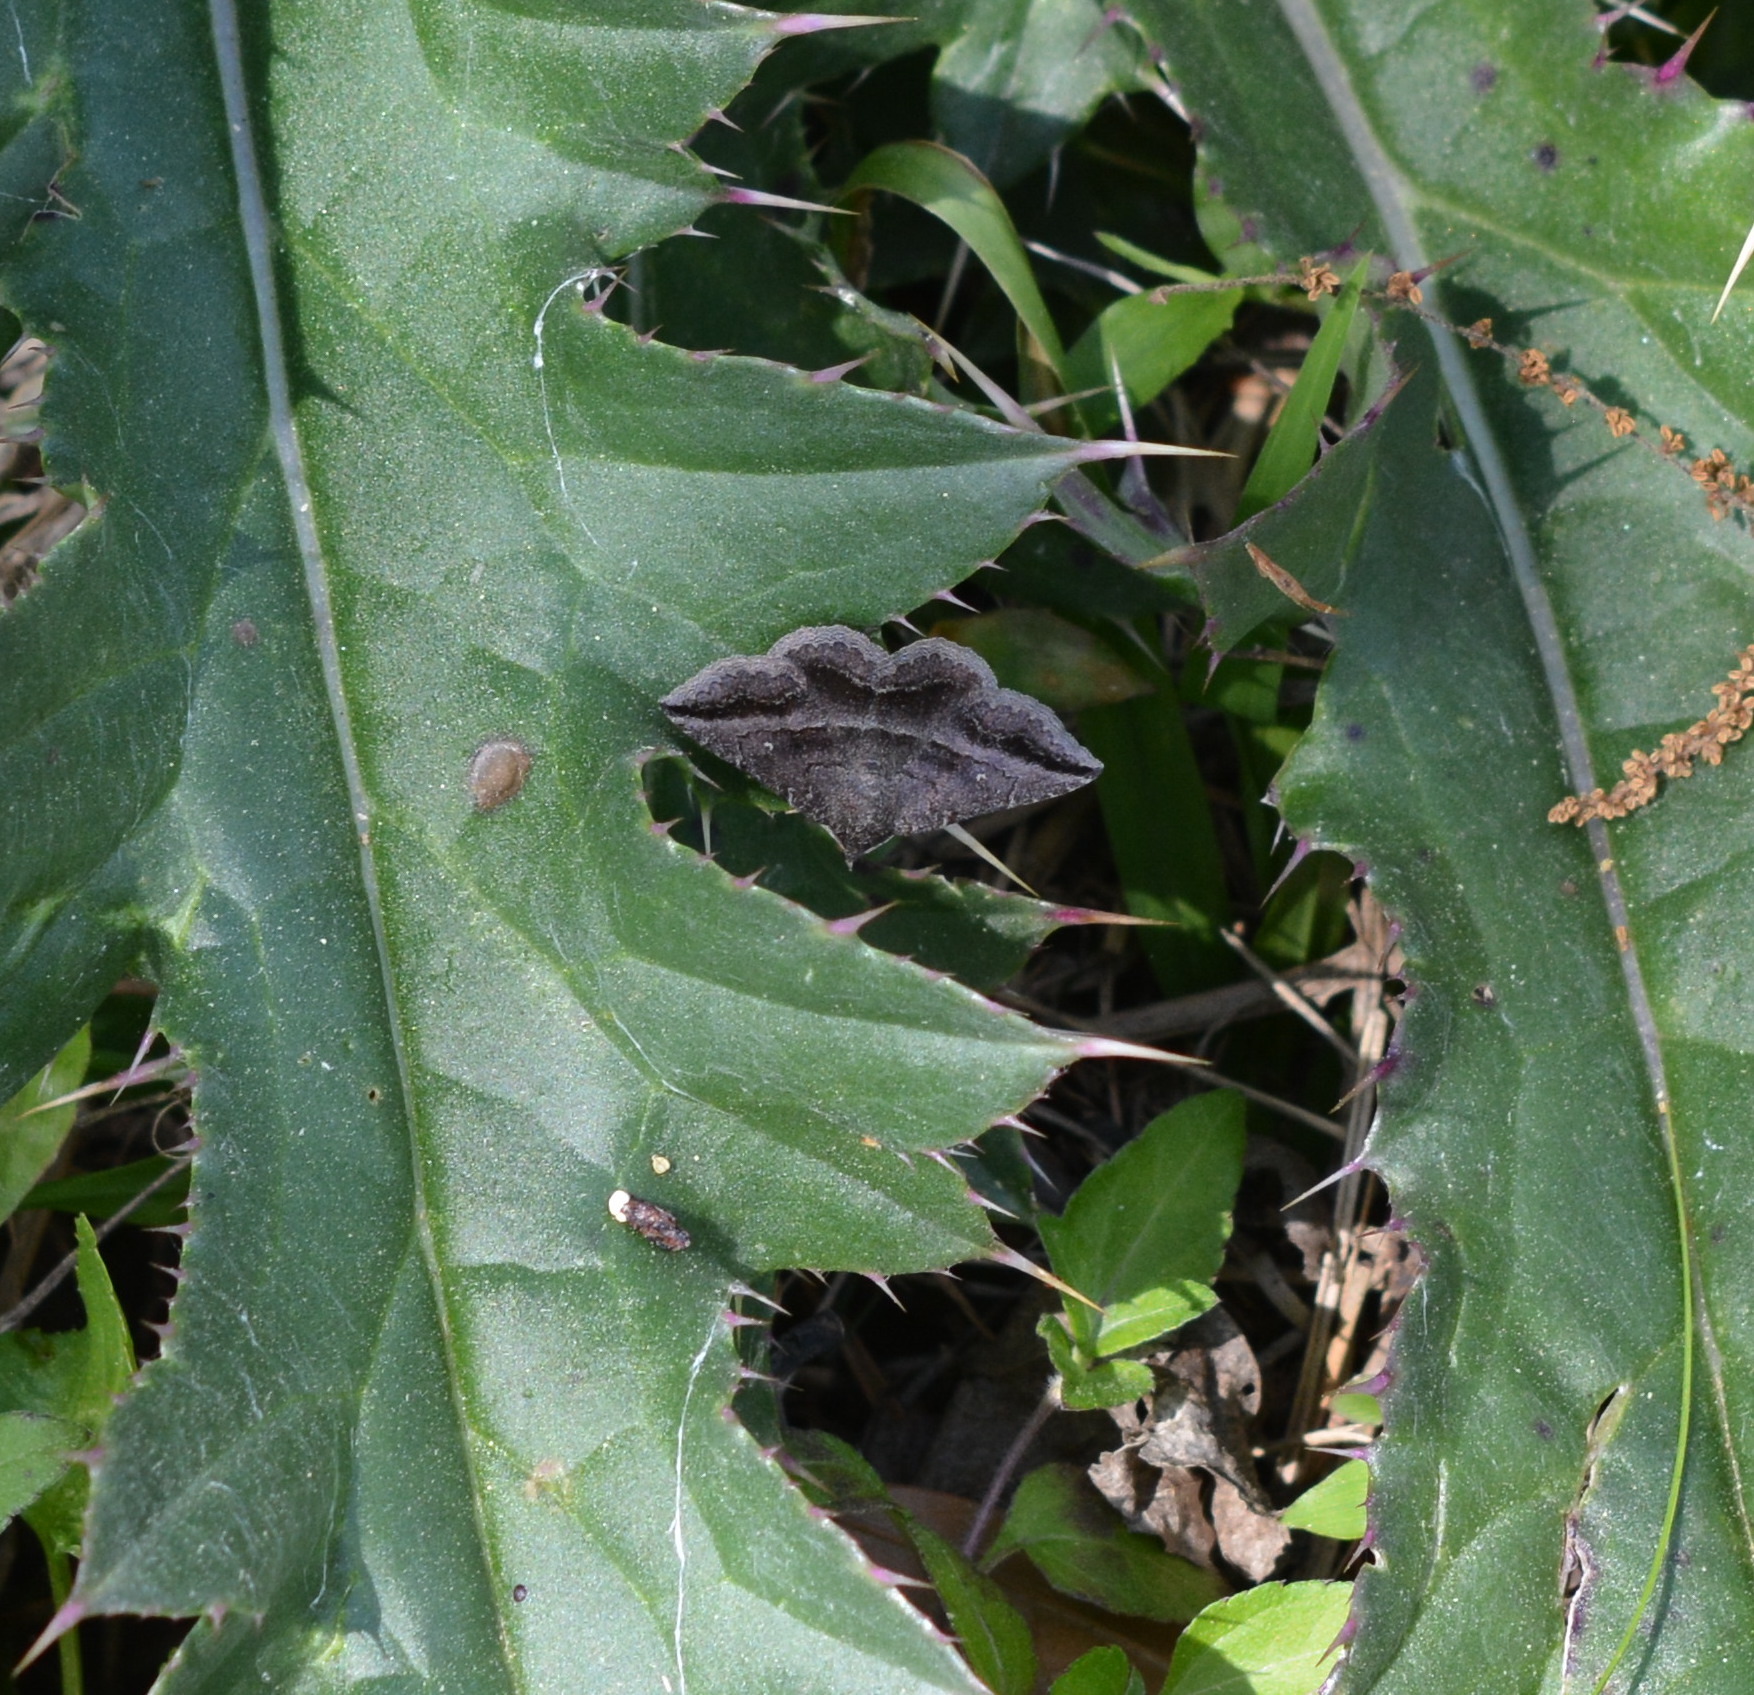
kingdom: Animalia
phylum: Arthropoda
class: Insecta
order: Lepidoptera
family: Erebidae
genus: Lesmone
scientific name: Lesmone detrahens
